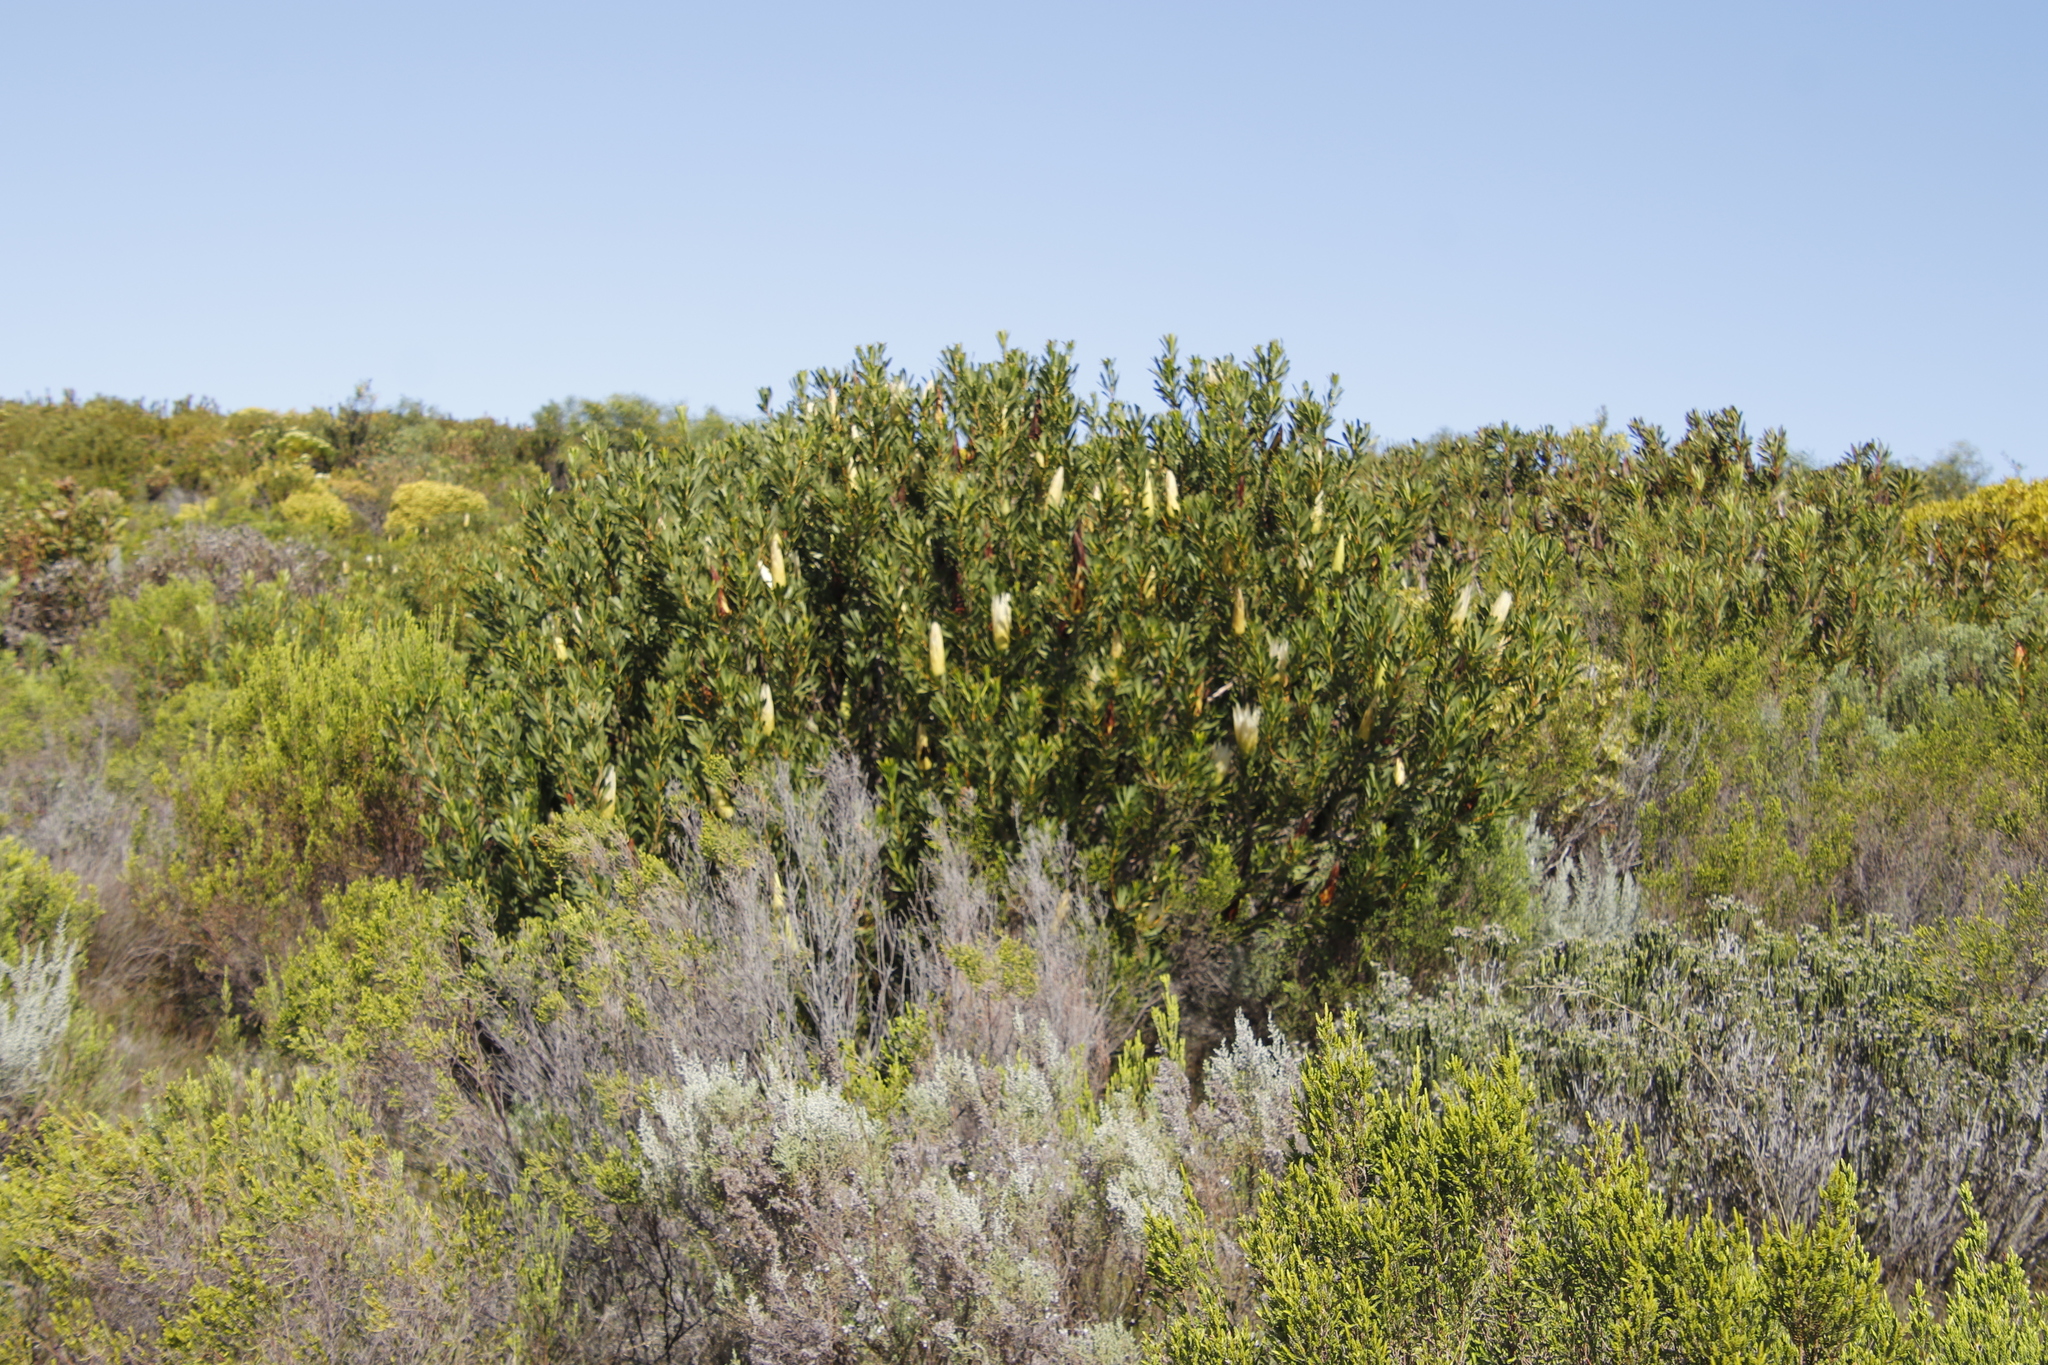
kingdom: Plantae
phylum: Tracheophyta
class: Magnoliopsida
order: Proteales
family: Proteaceae
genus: Protea
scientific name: Protea repens
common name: Sugarbush
